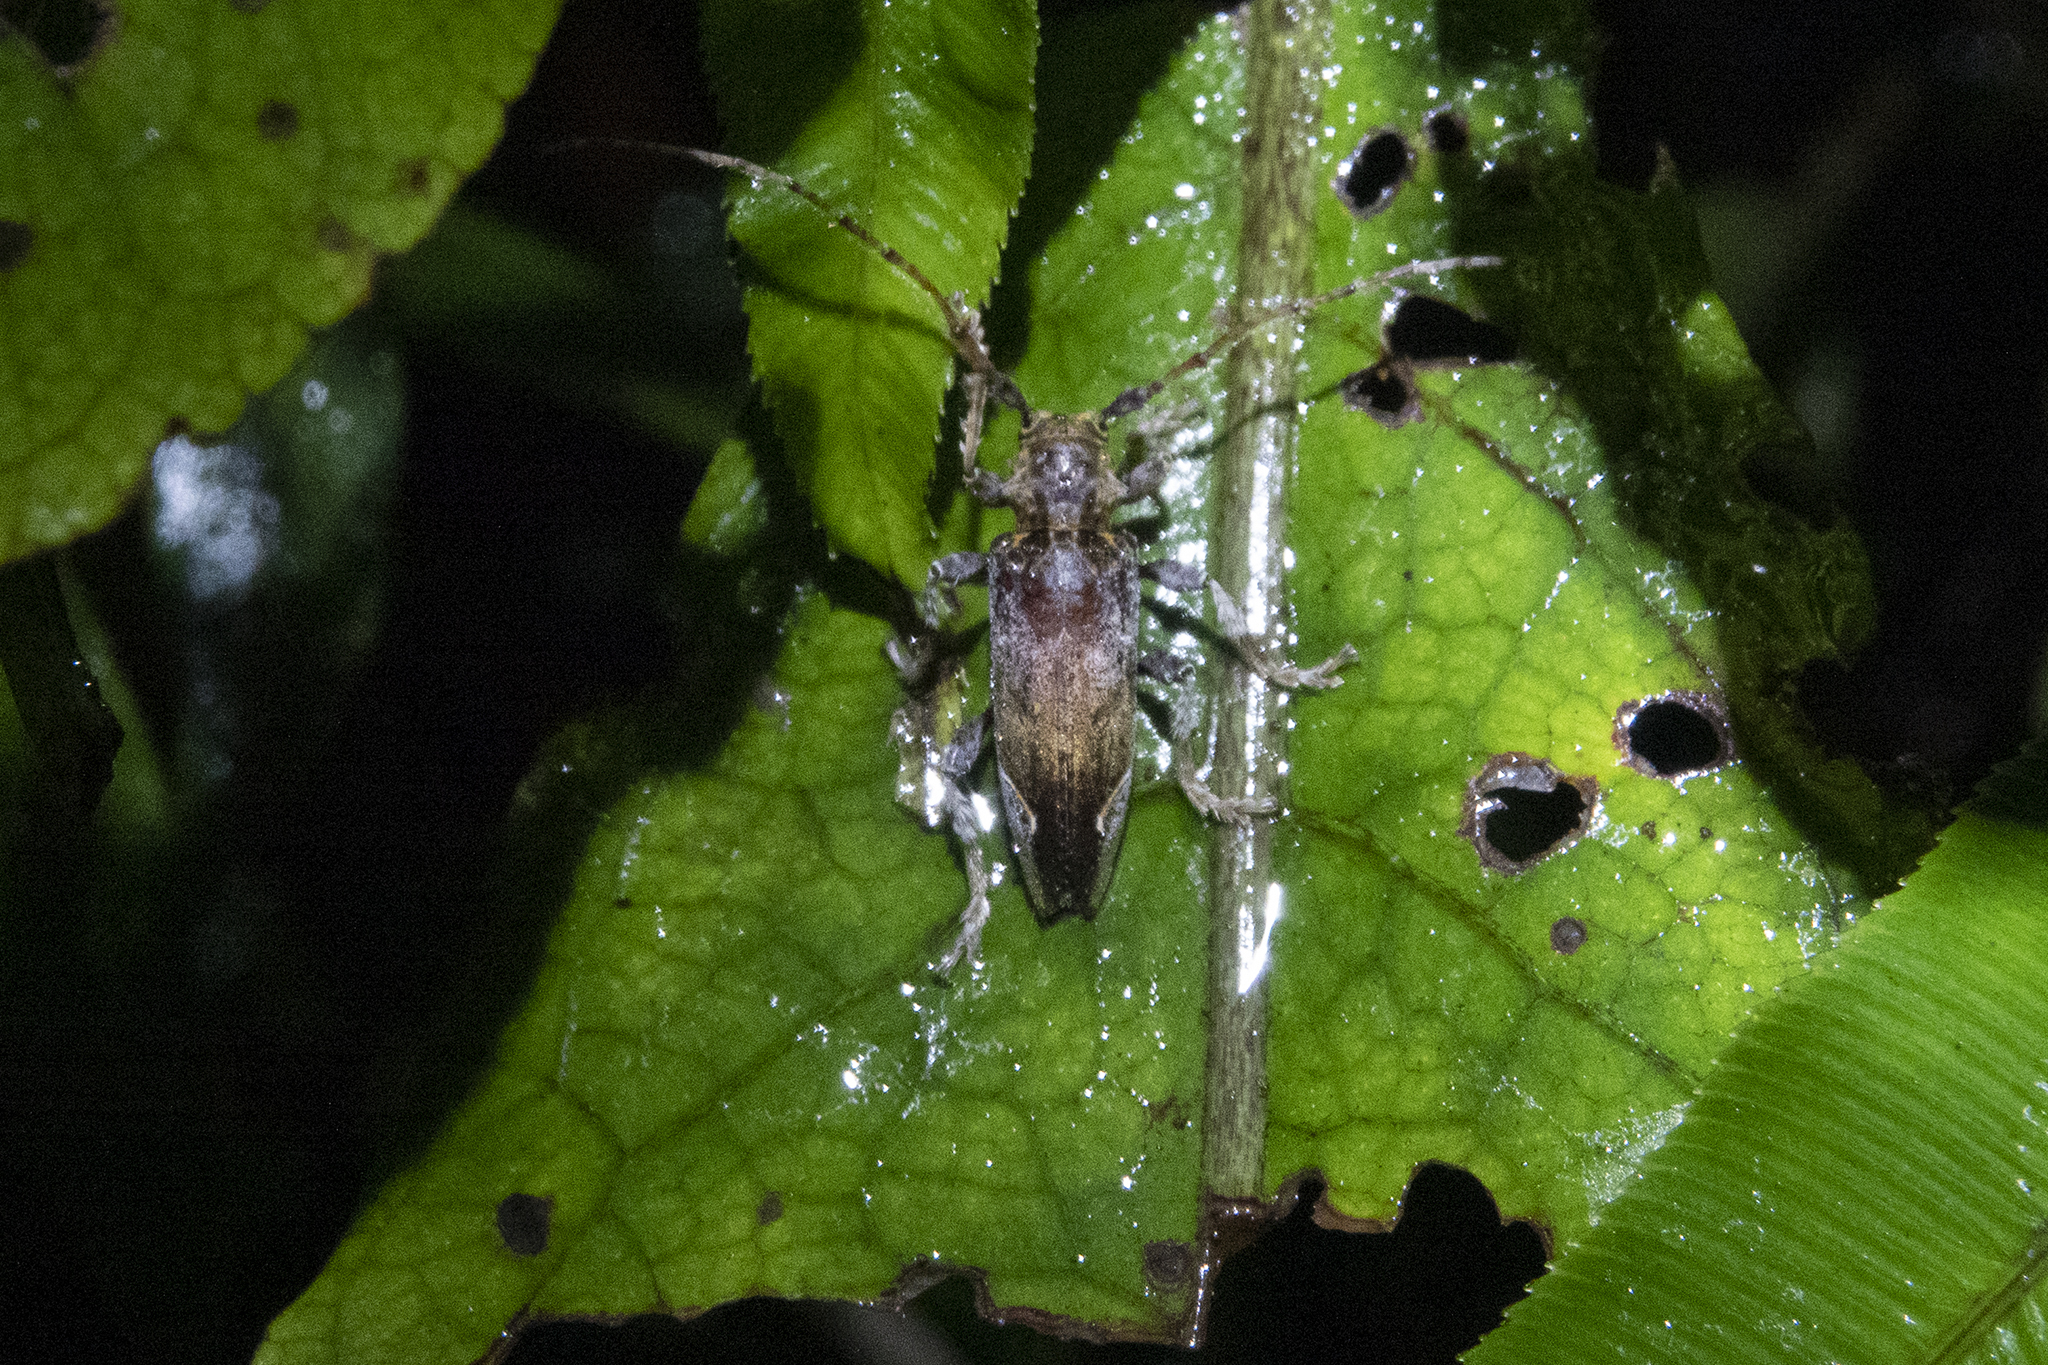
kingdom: Animalia
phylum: Arthropoda
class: Insecta
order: Coleoptera
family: Cerambycidae
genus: Tetrorea
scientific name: Tetrorea cilipes
